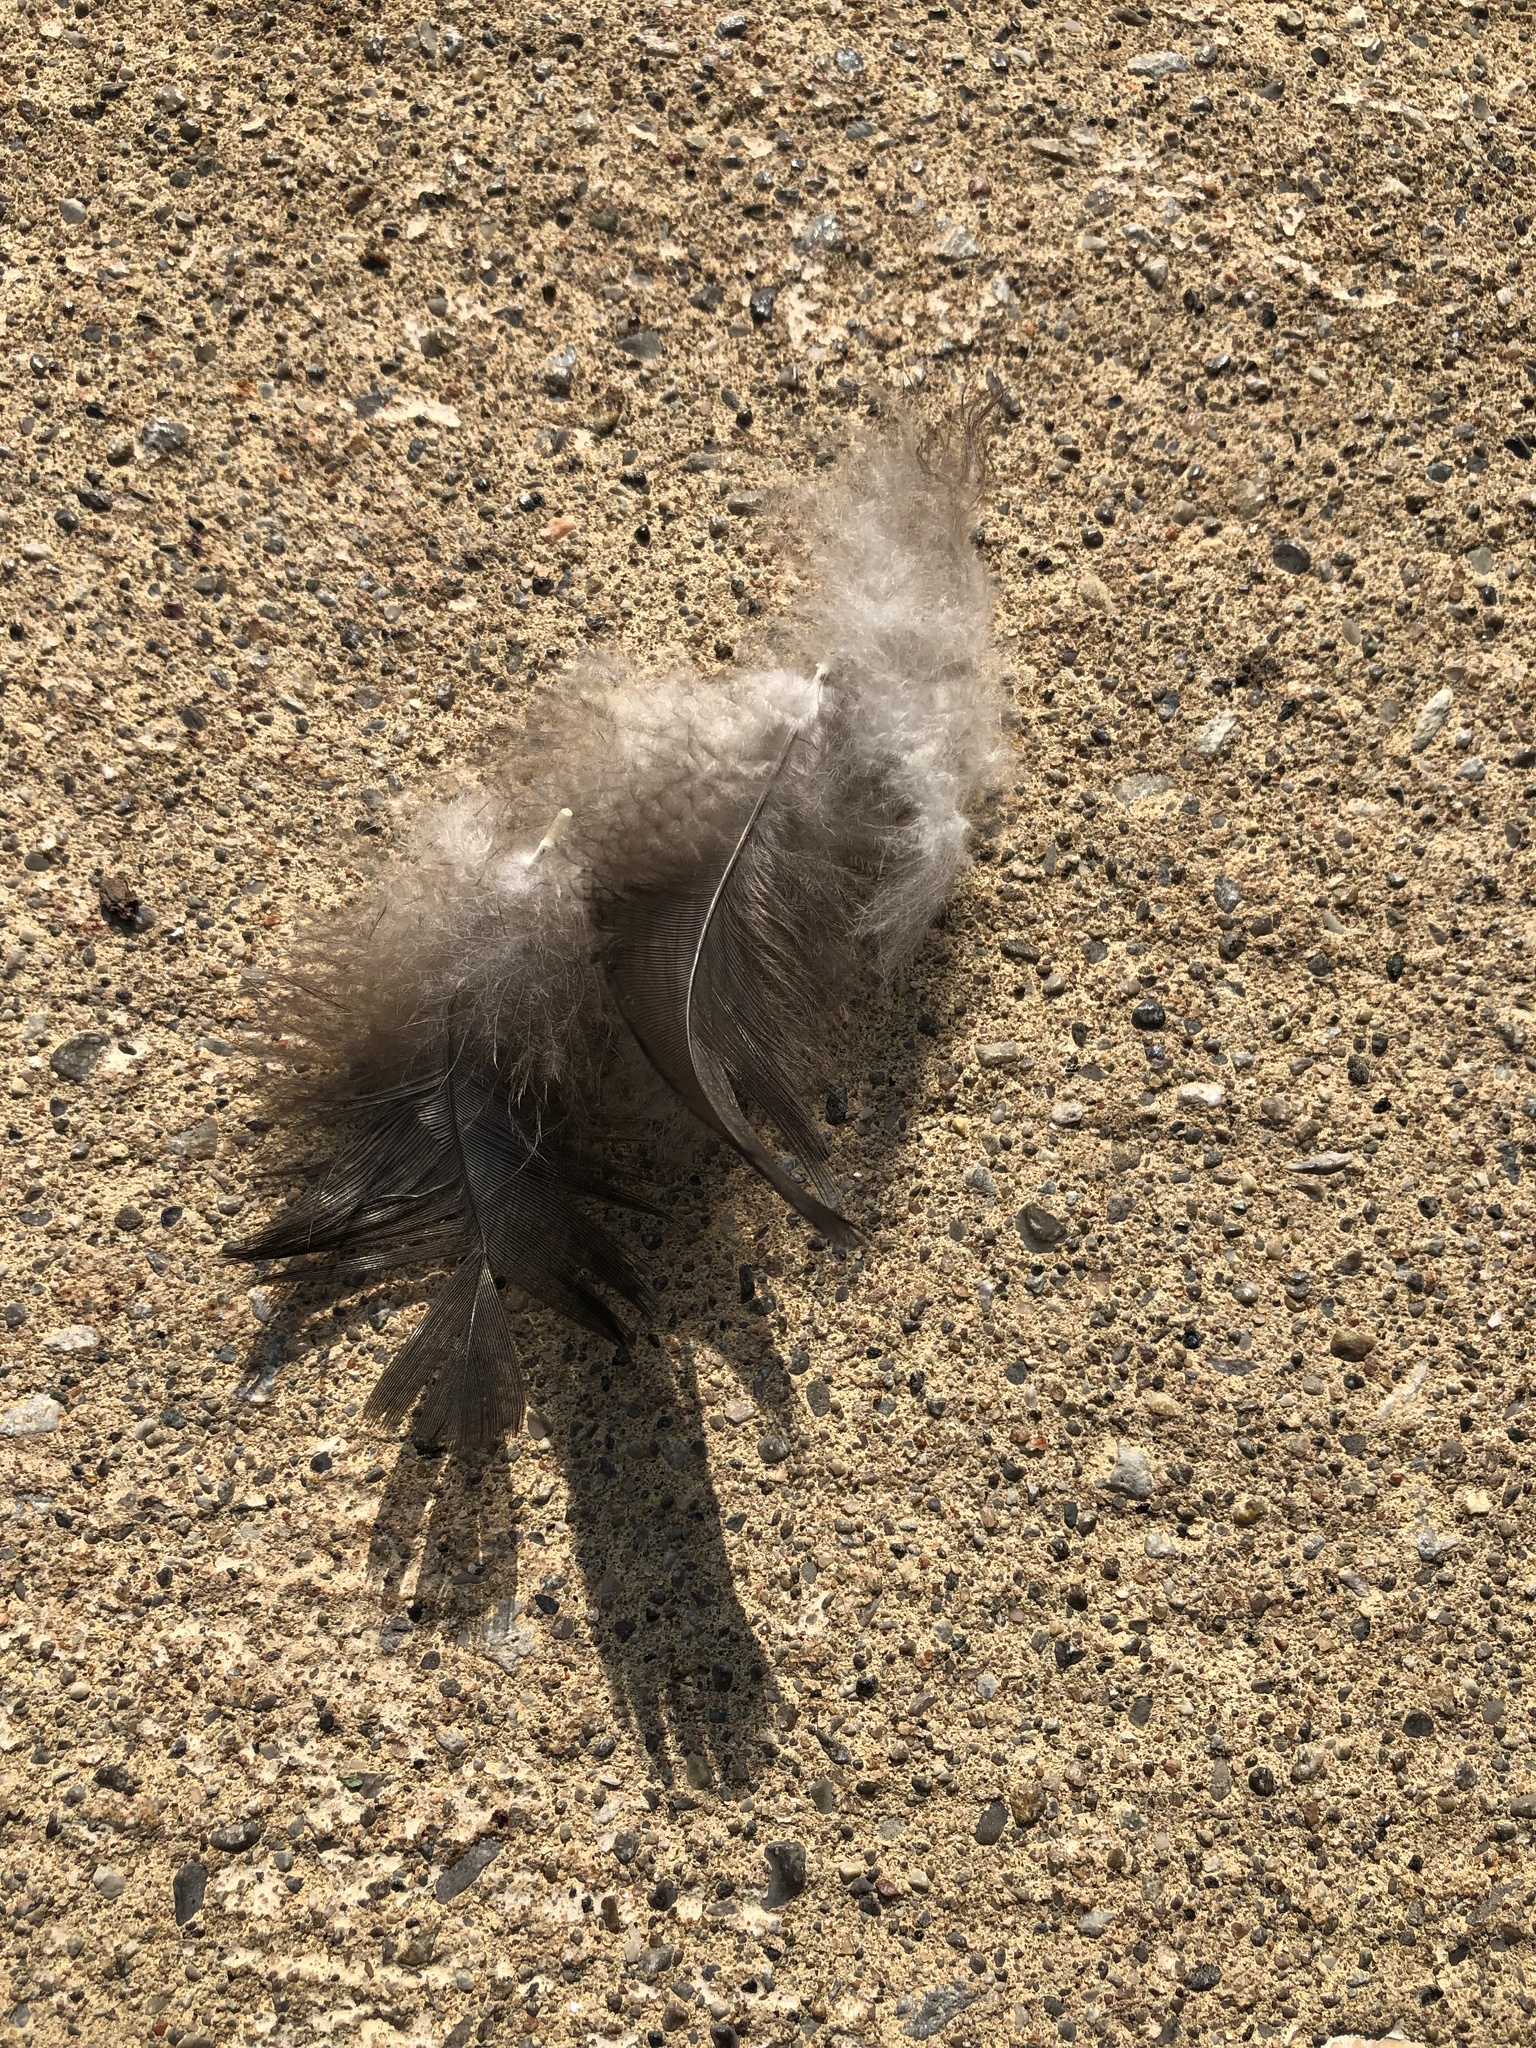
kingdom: Animalia
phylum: Chordata
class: Aves
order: Anseriformes
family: Anatidae
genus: Branta
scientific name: Branta canadensis
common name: Canada goose
